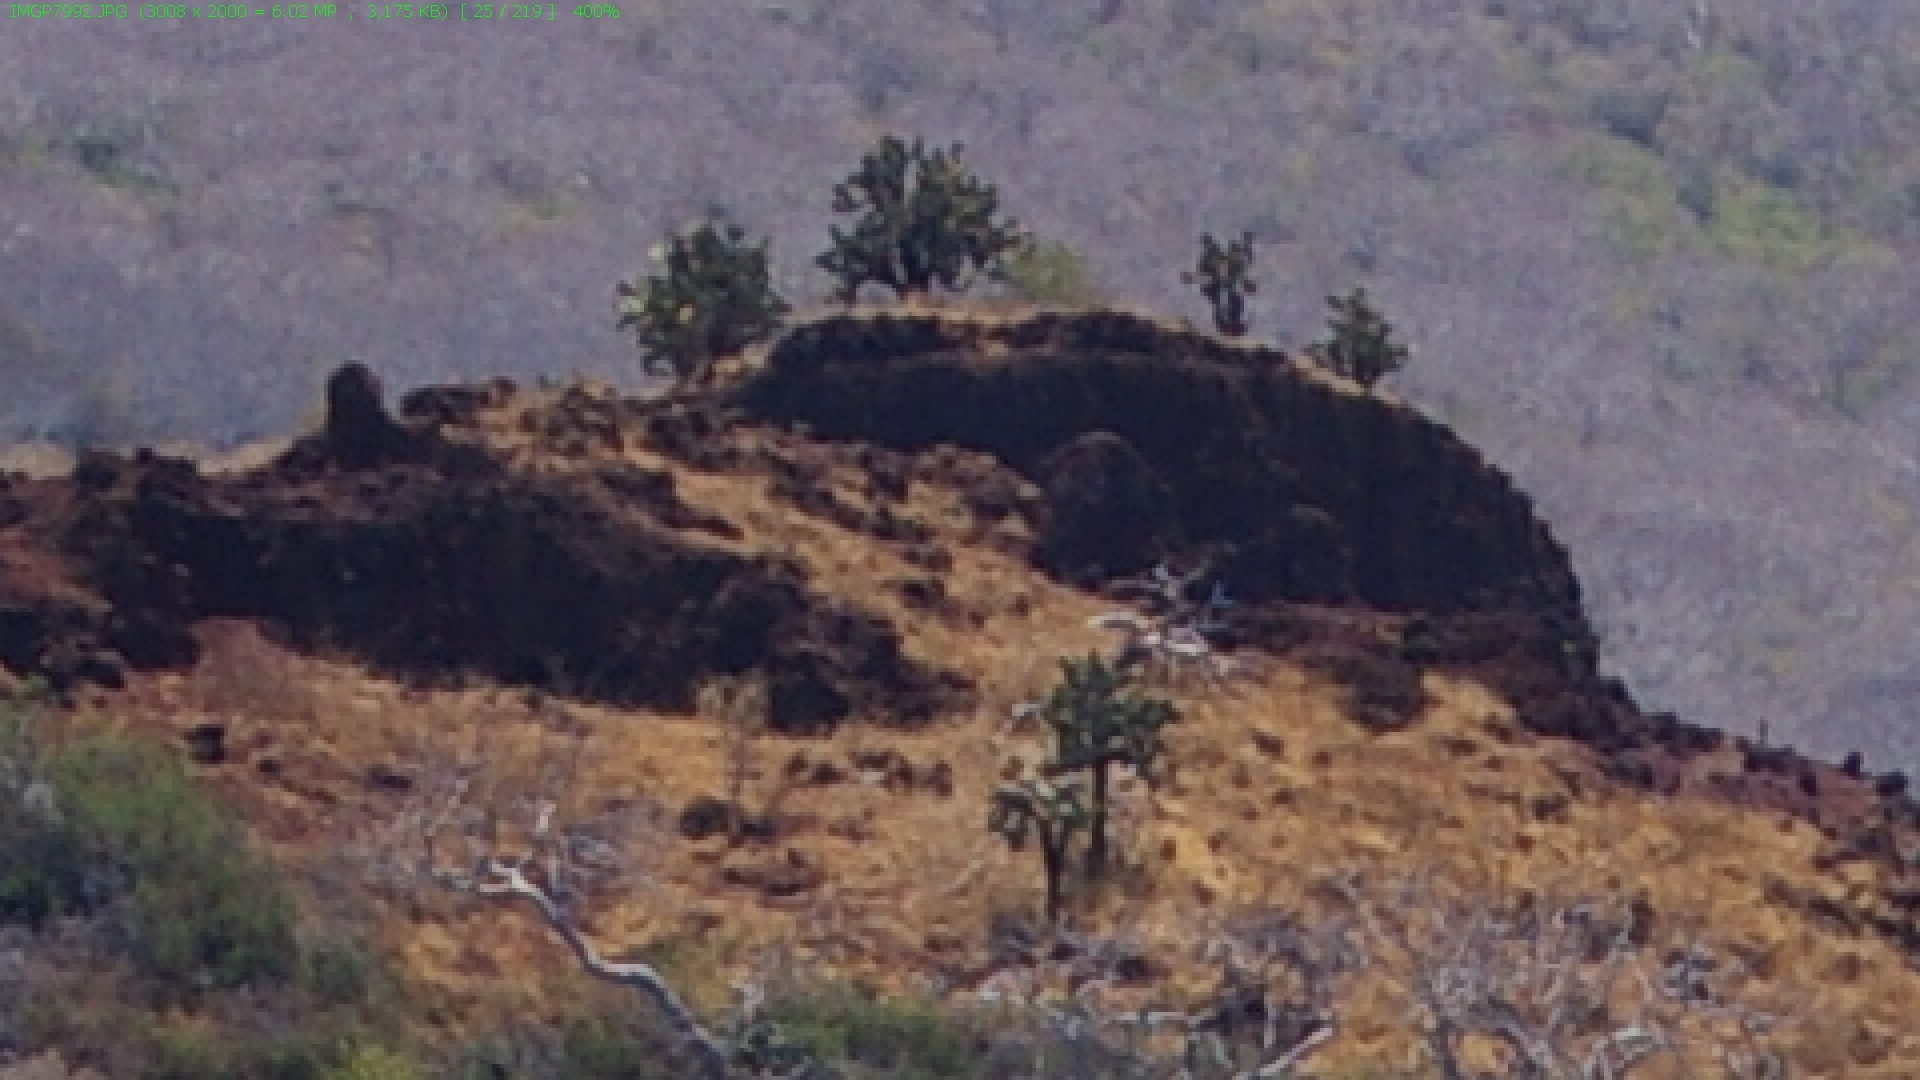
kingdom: Plantae
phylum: Tracheophyta
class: Magnoliopsida
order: Caryophyllales
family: Cactaceae
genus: Opuntia
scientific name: Opuntia galapageia
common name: Galápagos prickly pear
